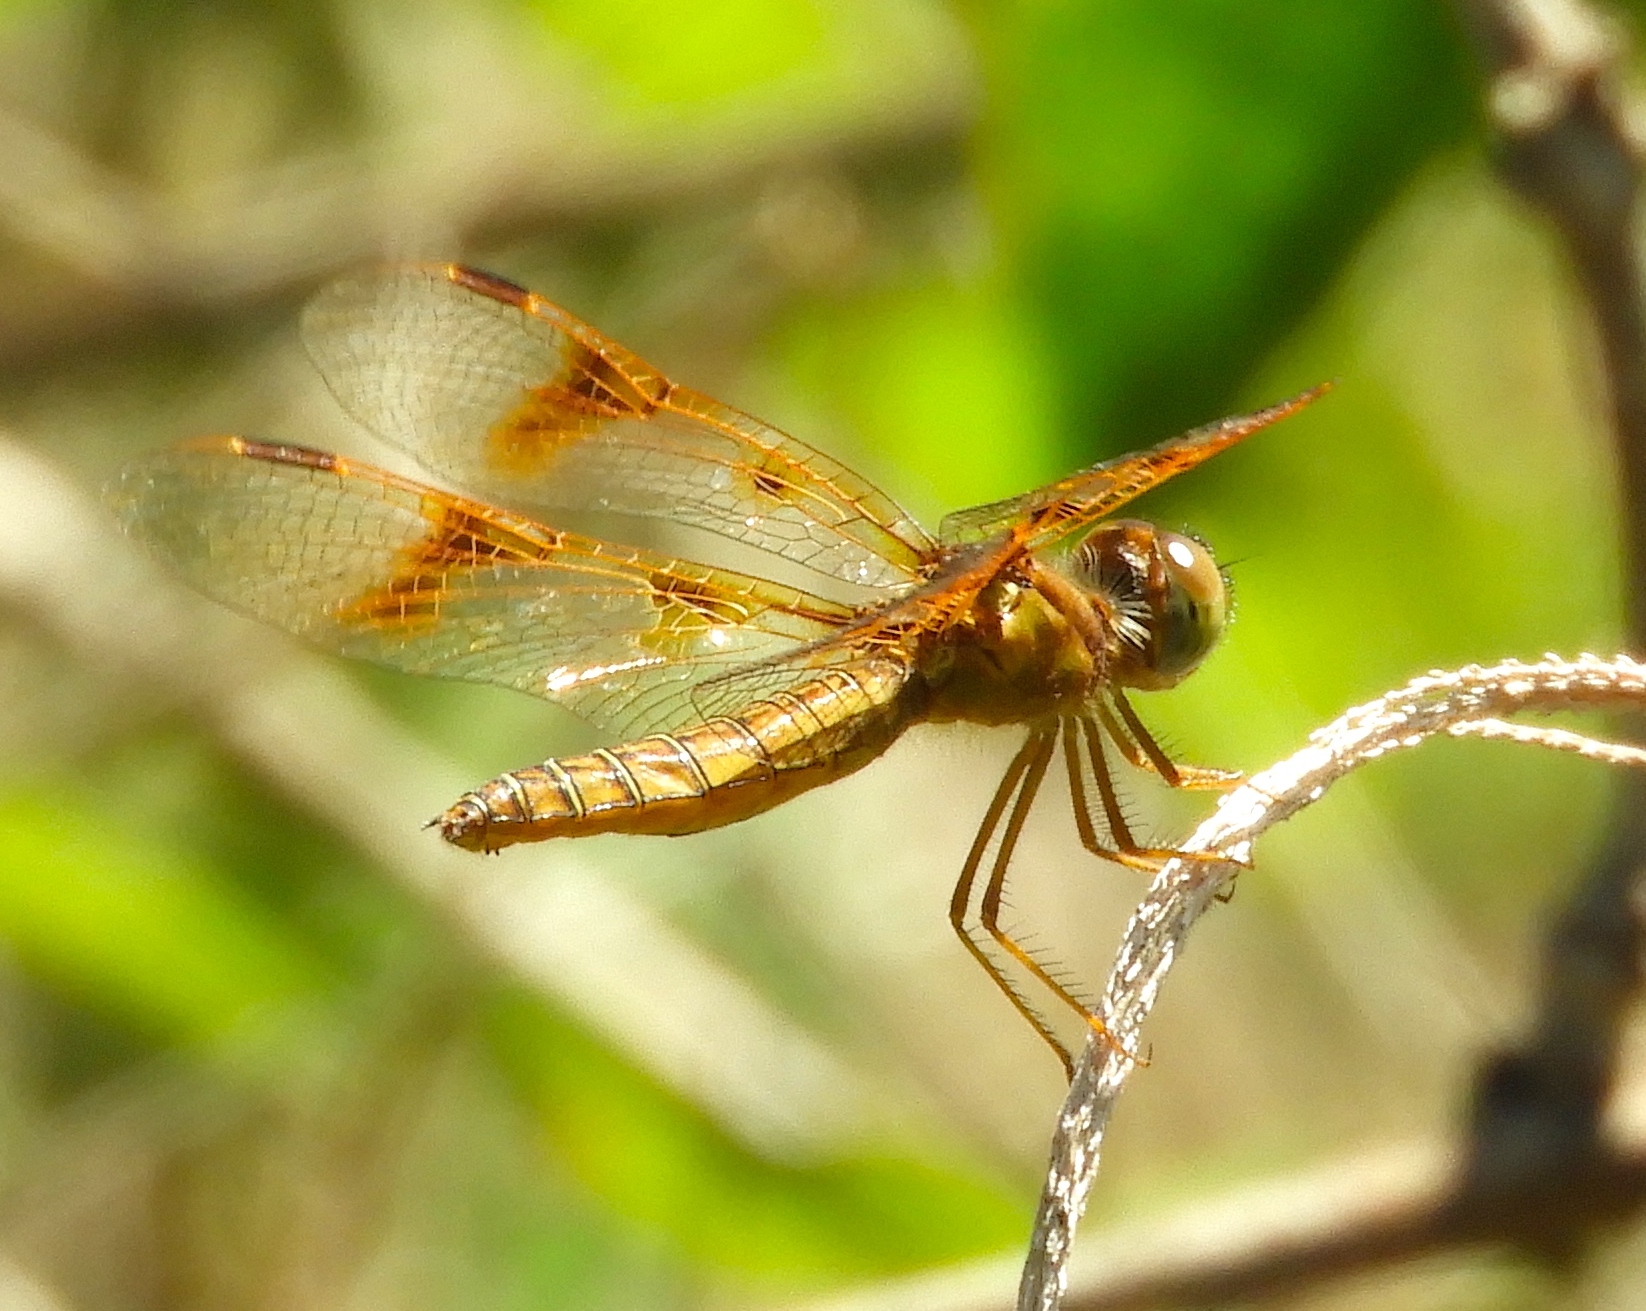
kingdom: Animalia
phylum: Arthropoda
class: Insecta
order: Odonata
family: Libellulidae
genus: Perithemis
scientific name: Perithemis tenera
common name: Eastern amberwing
